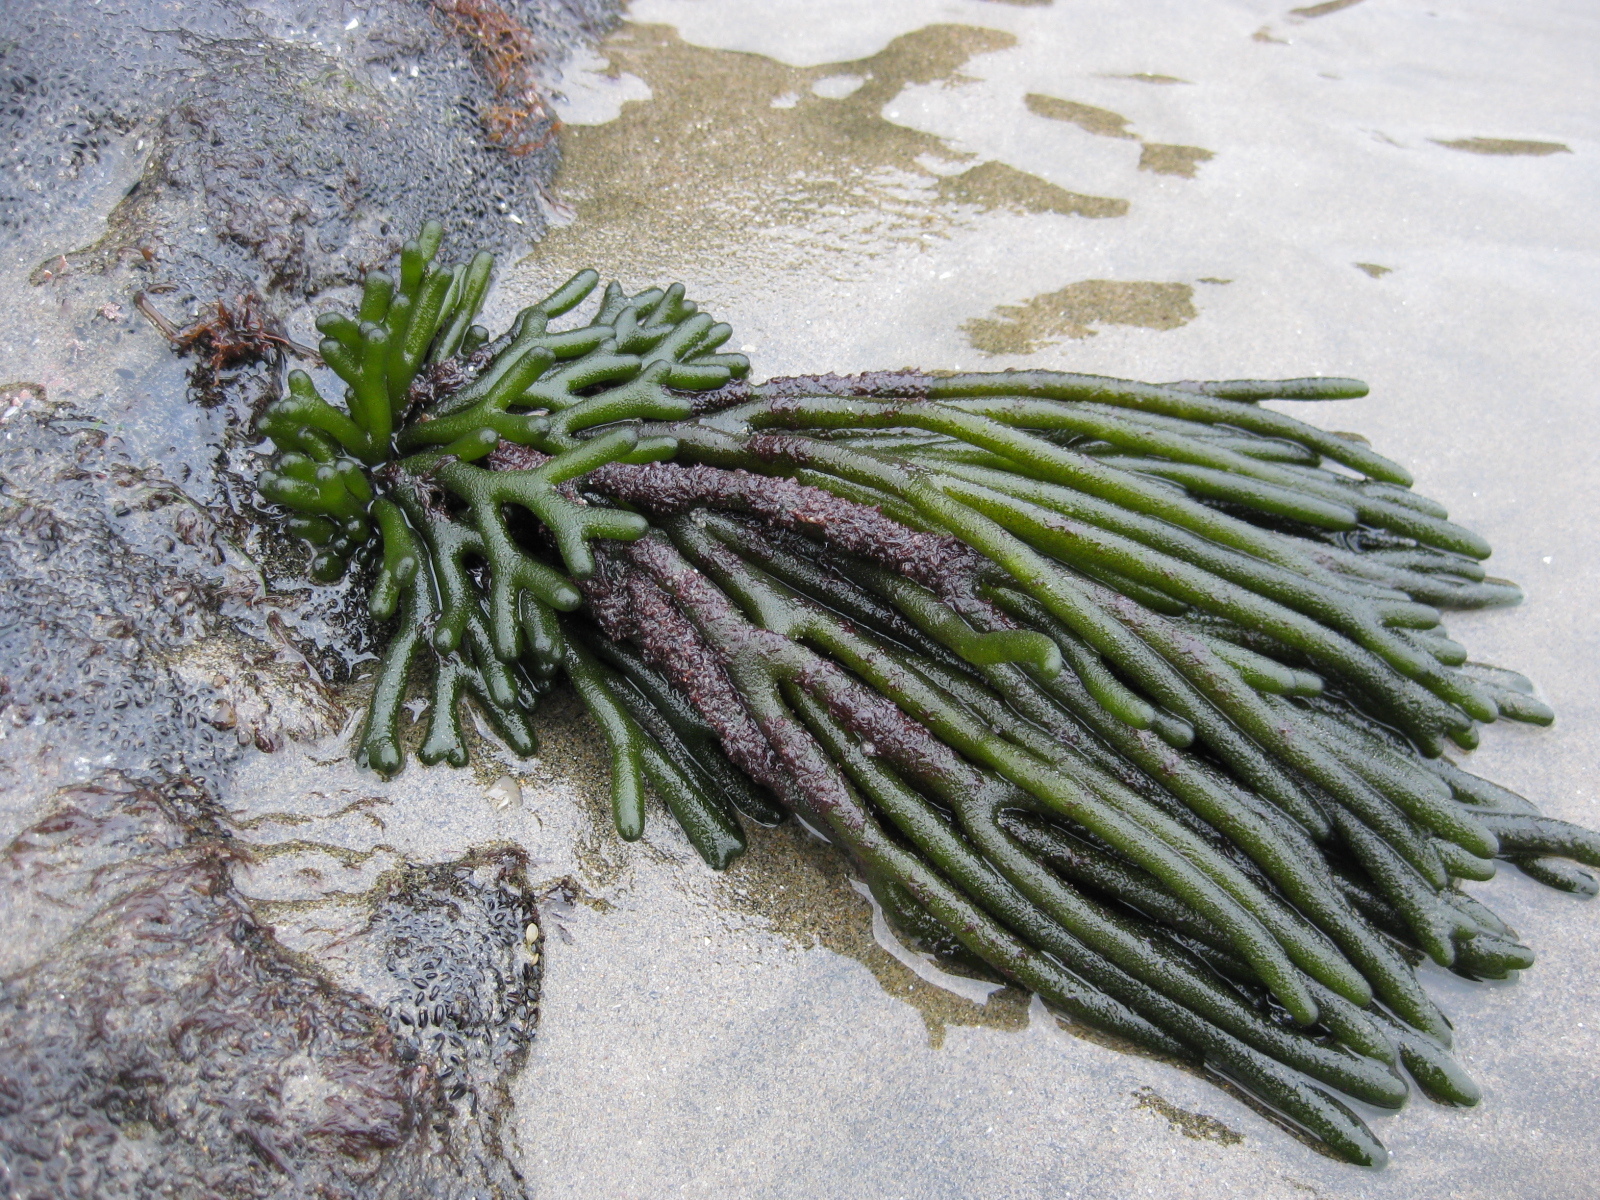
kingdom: Plantae
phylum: Chlorophyta
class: Ulvophyceae
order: Bryopsidales
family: Codiaceae
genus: Codium
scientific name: Codium fragile
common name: Dead man's fingers
